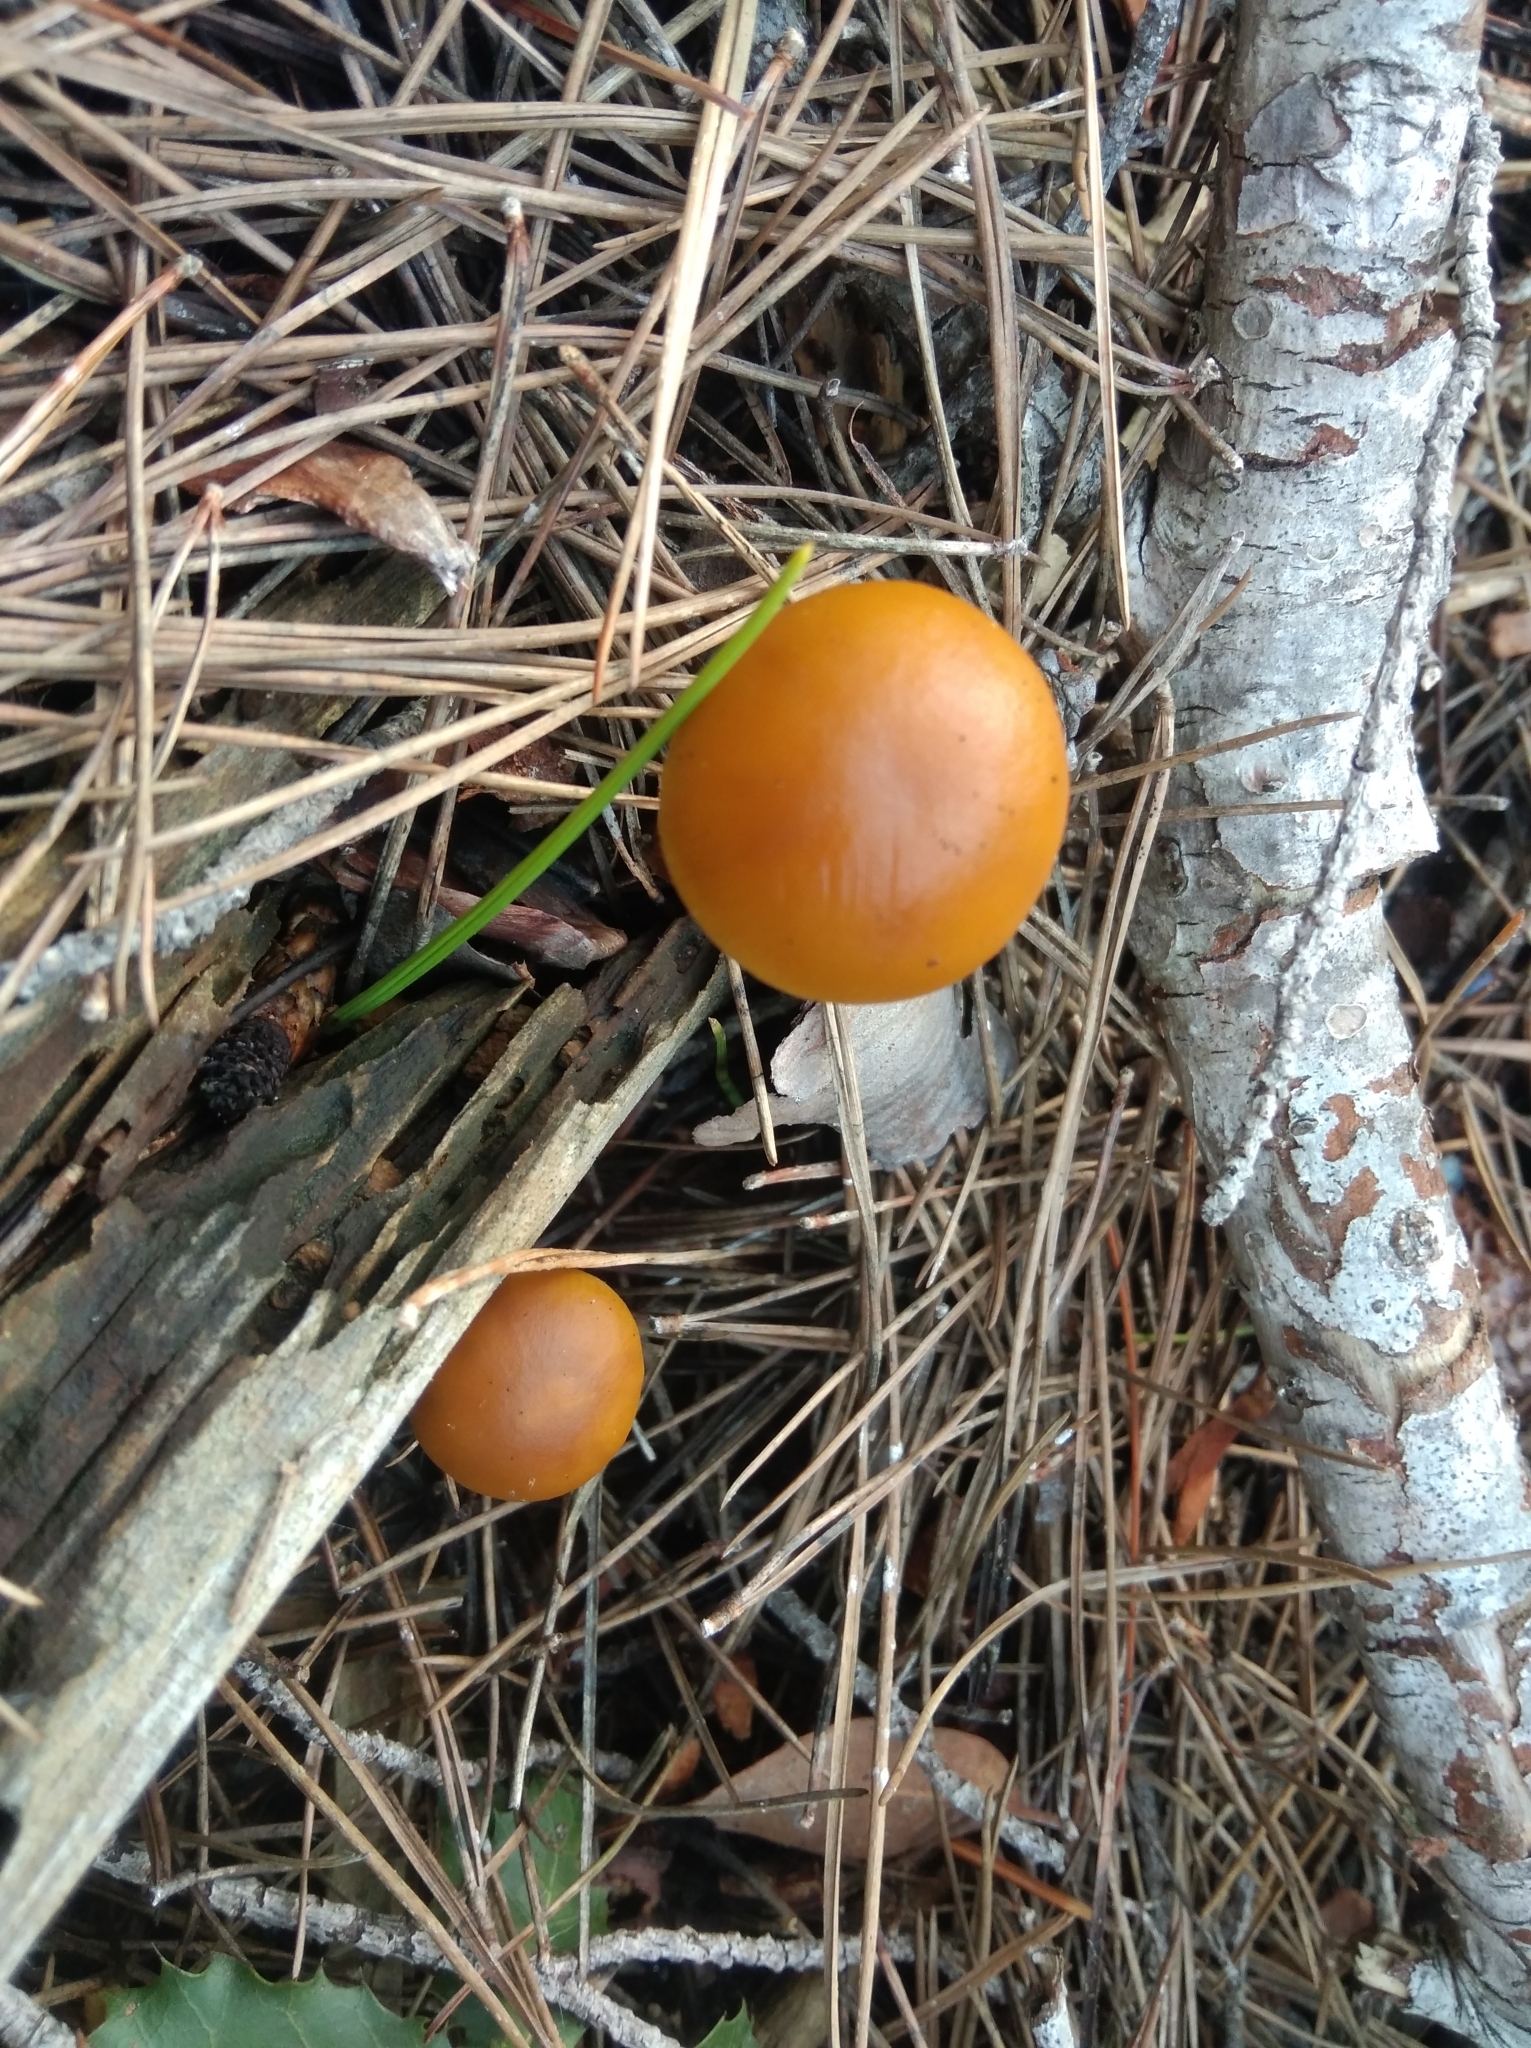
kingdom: Fungi
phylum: Basidiomycota
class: Agaricomycetes
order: Agaricales
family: Hymenogastraceae
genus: Galerina
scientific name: Galerina marginata
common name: Funeral bell
